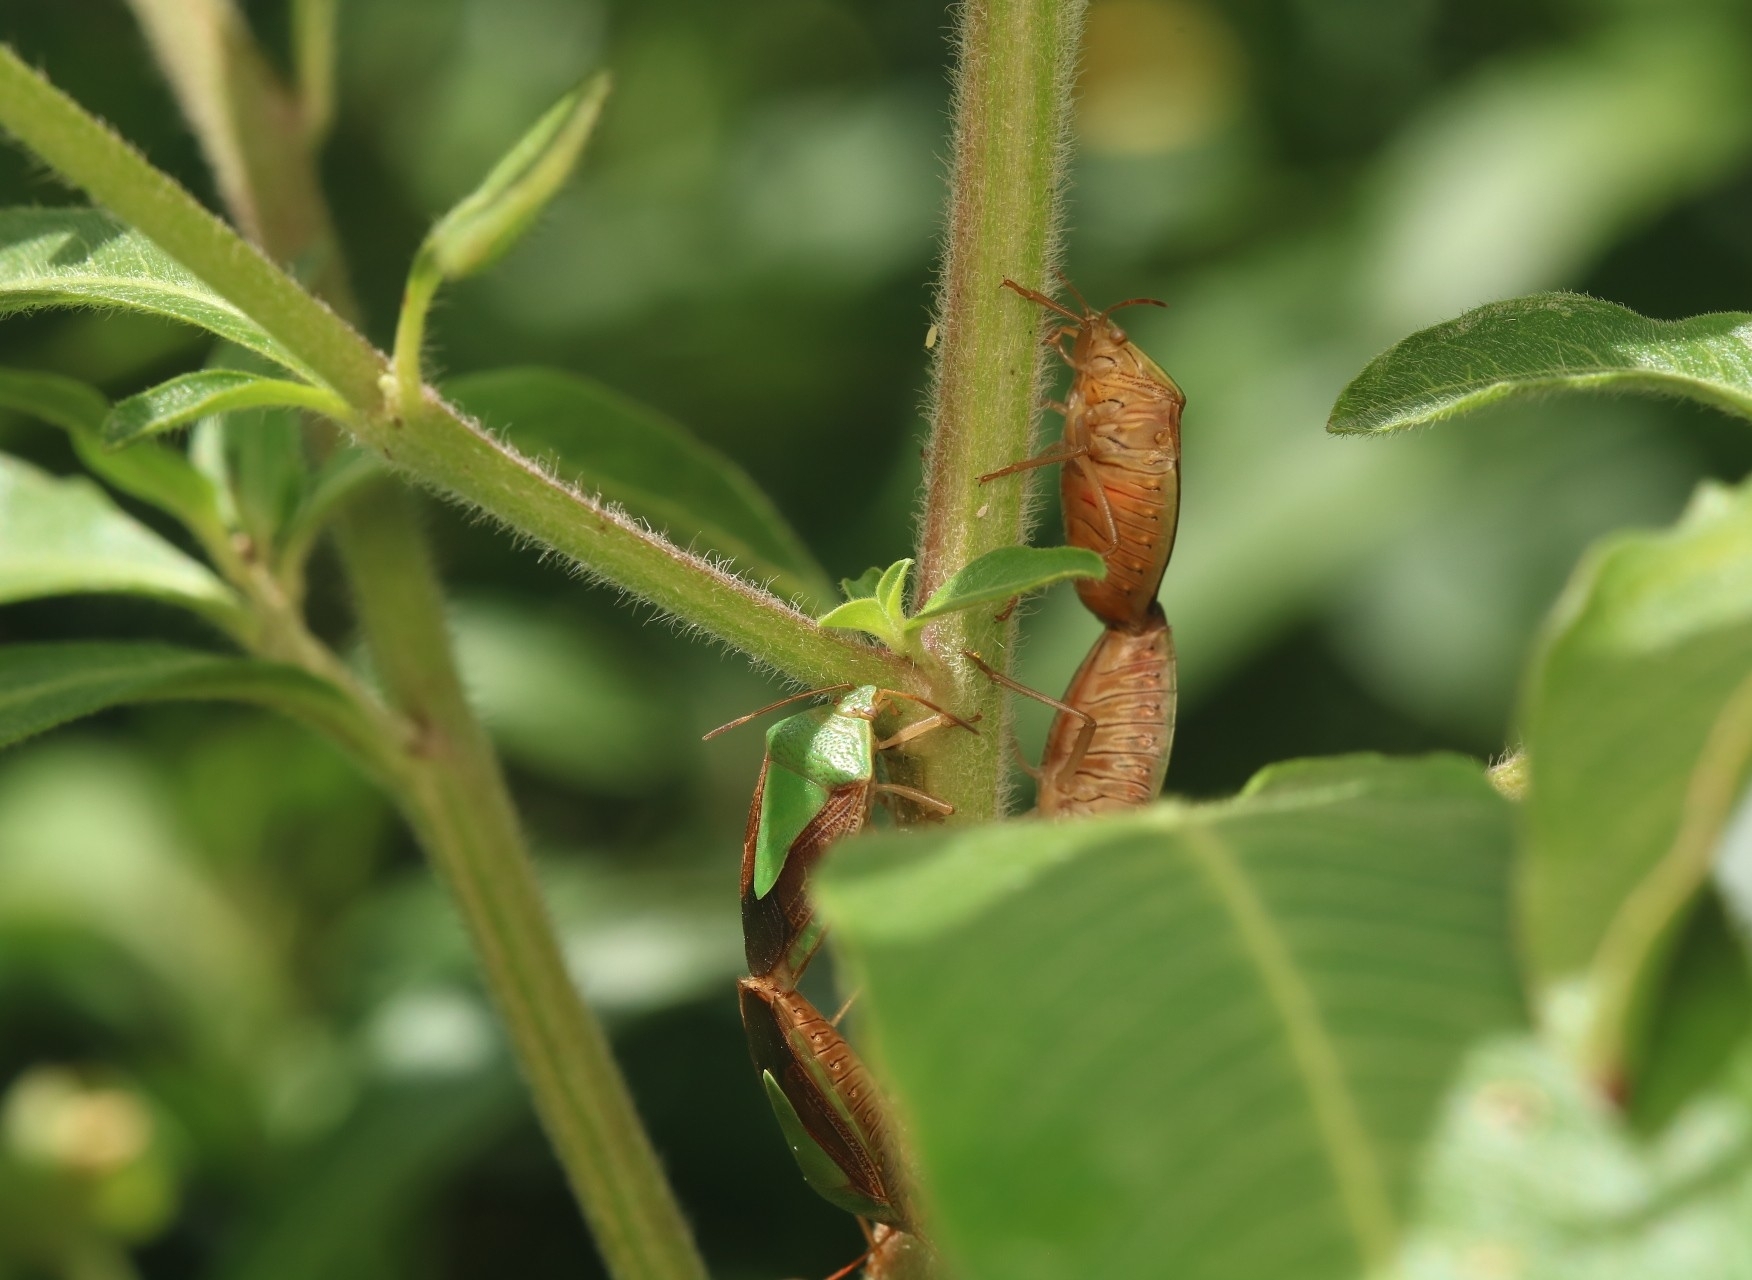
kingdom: Animalia
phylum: Arthropoda
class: Insecta
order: Hemiptera
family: Pentatomidae
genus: Edessa
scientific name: Edessa meditabunda
